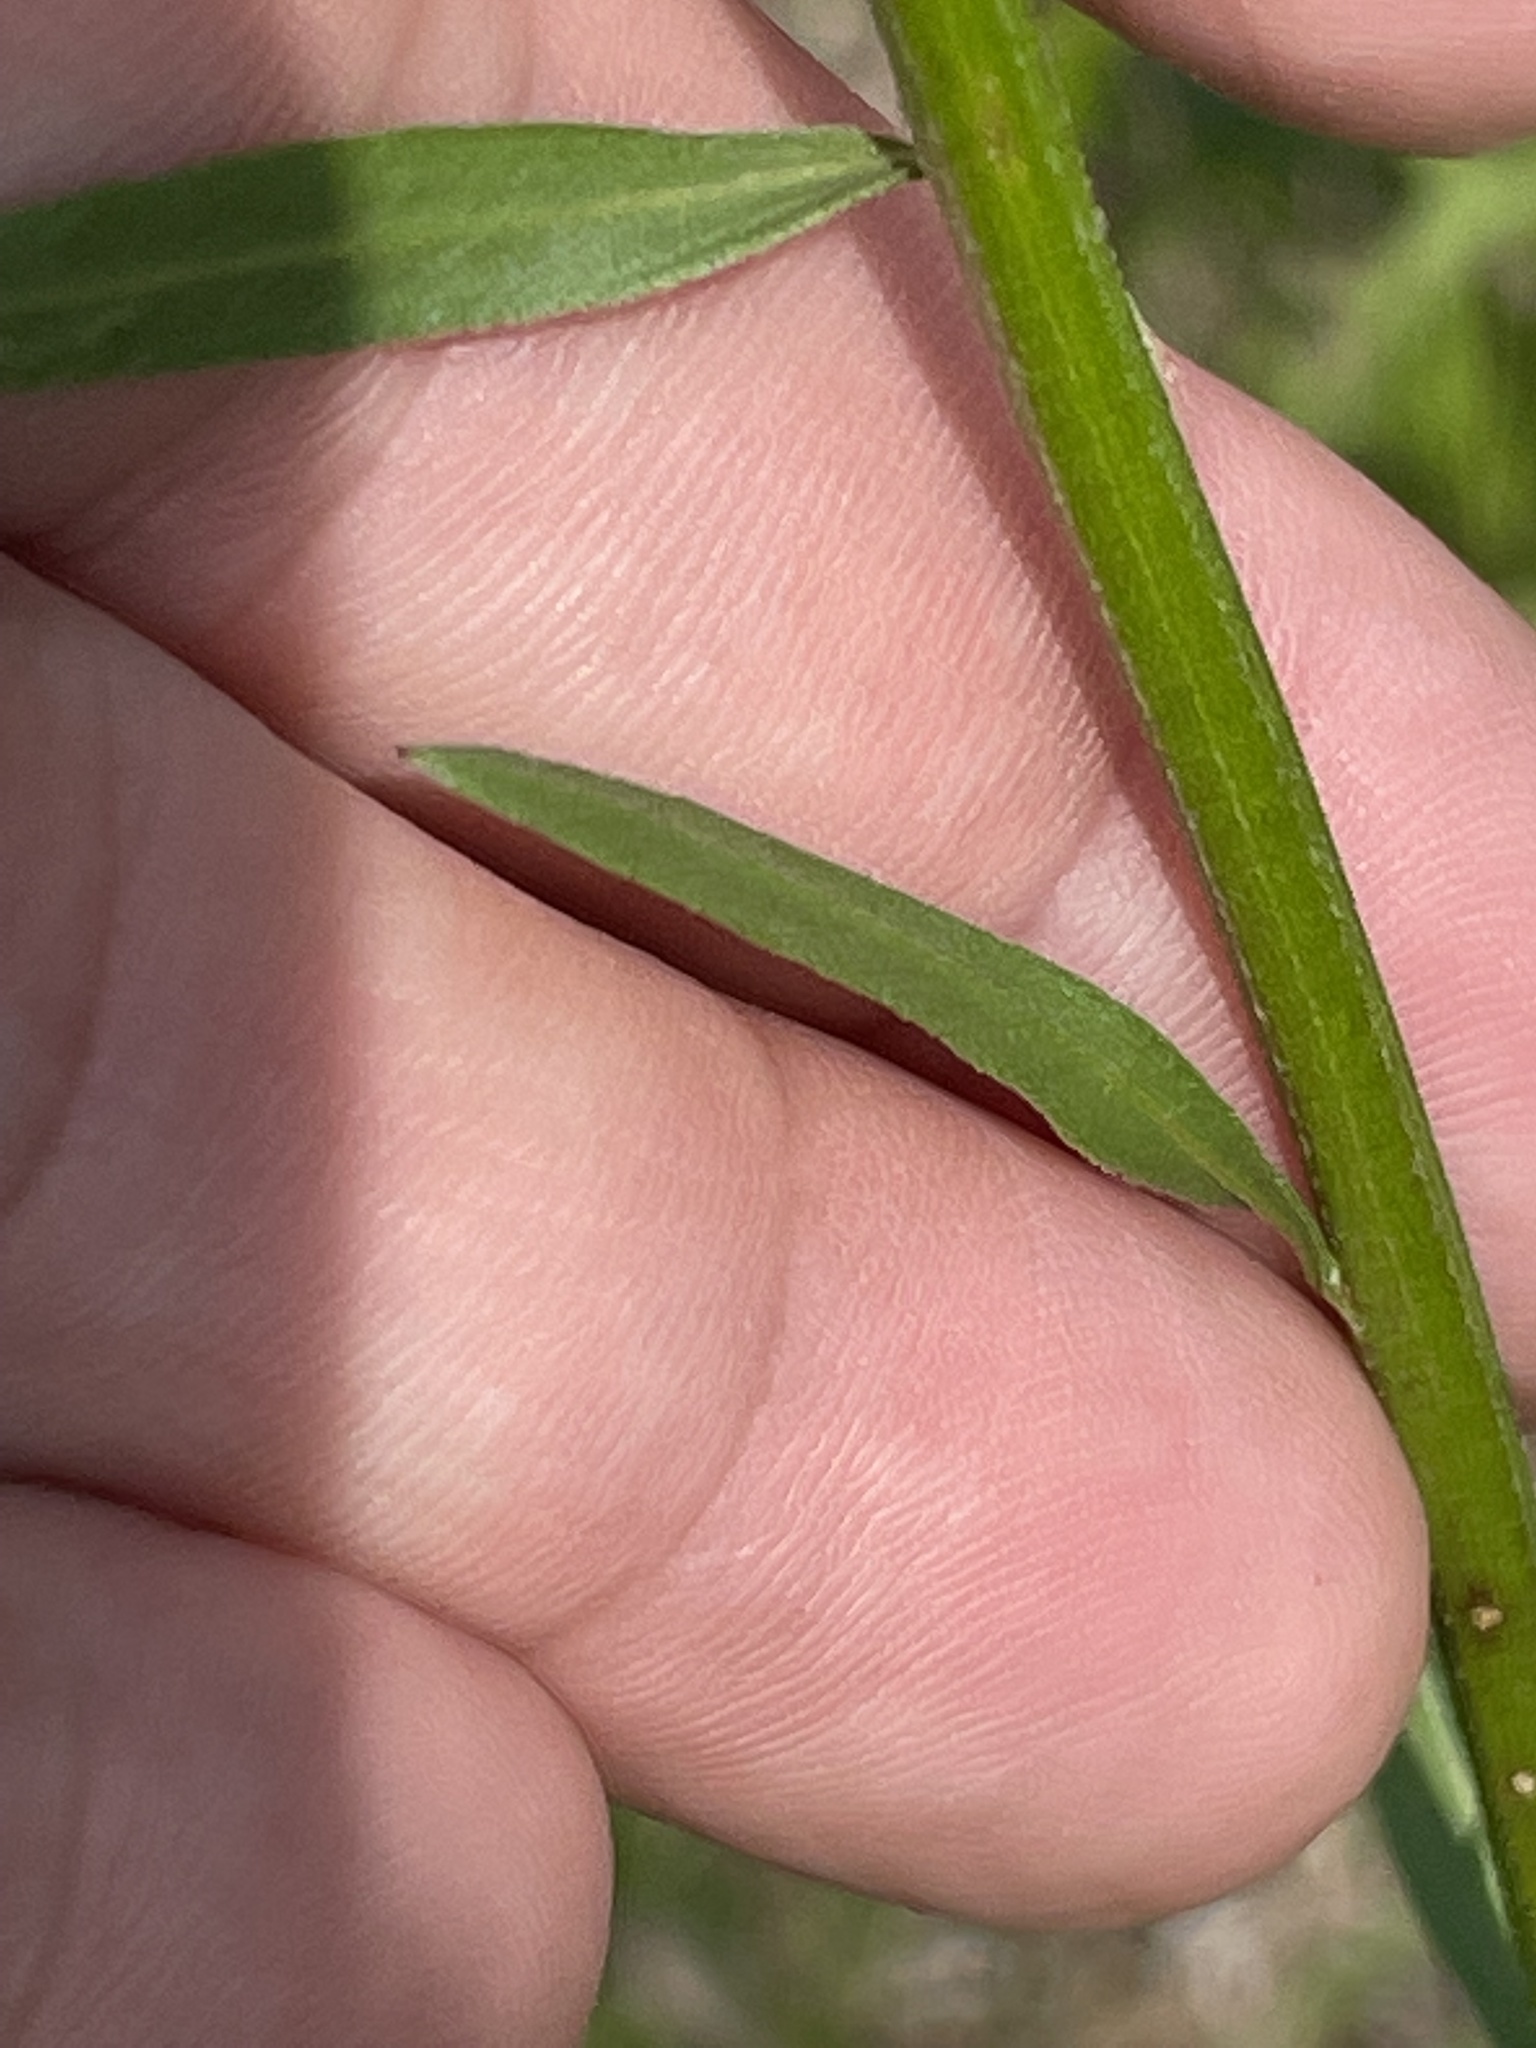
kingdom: Plantae
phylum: Tracheophyta
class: Magnoliopsida
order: Asterales
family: Asteraceae
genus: Erigeron
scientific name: Erigeron strigosus
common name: Common eastern fleabane
